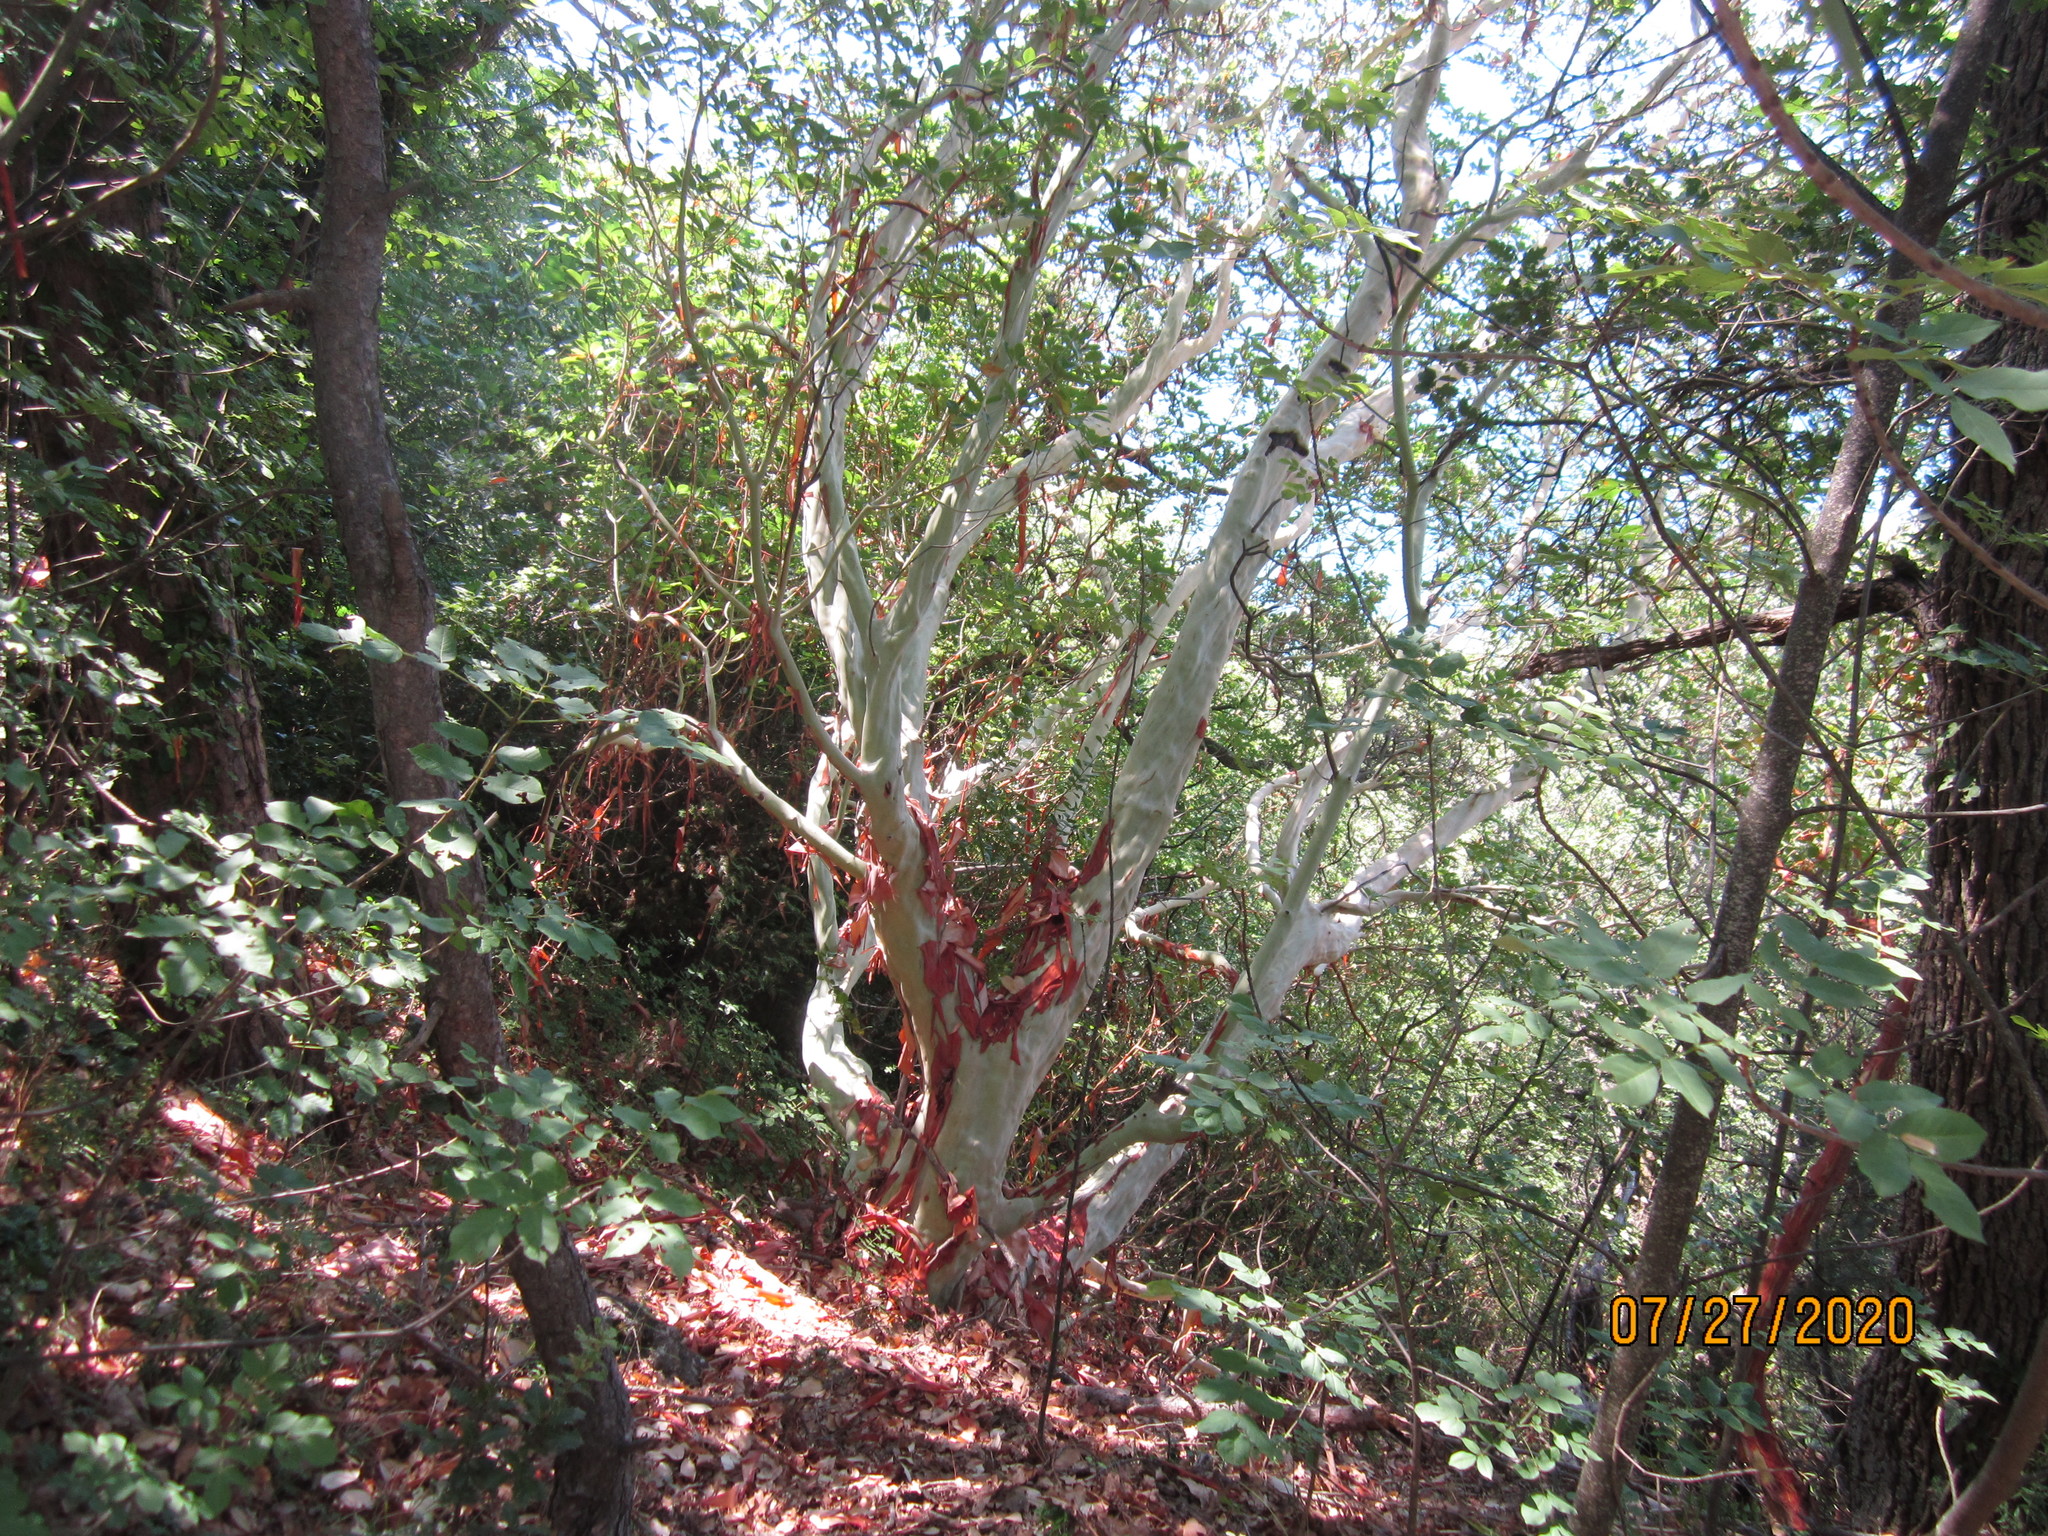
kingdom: Plantae
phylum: Tracheophyta
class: Magnoliopsida
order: Ericales
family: Ericaceae
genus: Arbutus
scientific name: Arbutus andrachne
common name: Greek strawberry tree
